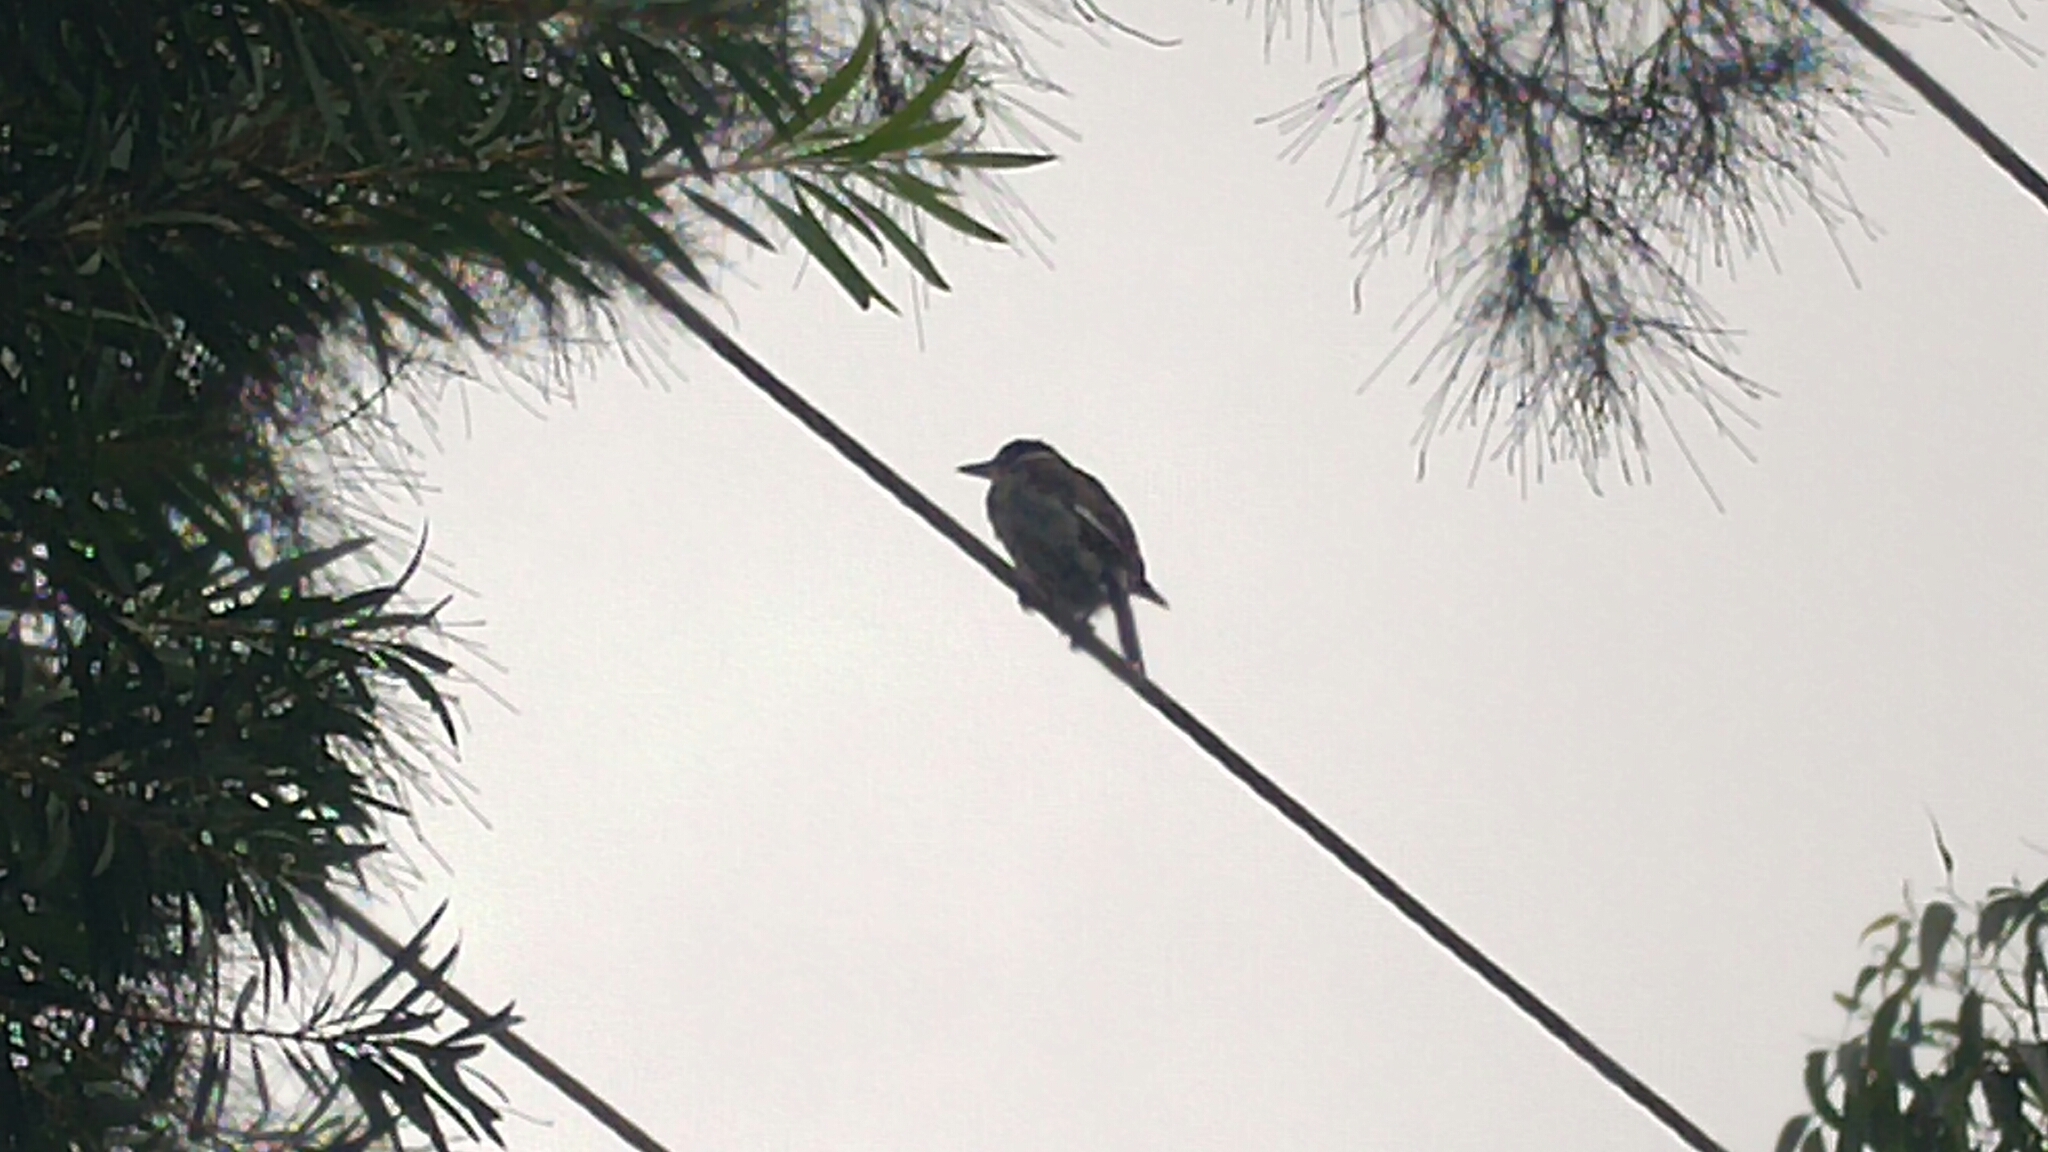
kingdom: Animalia
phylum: Chordata
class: Aves
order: Passeriformes
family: Cracticidae
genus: Cracticus
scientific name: Cracticus torquatus
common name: Grey butcherbird
